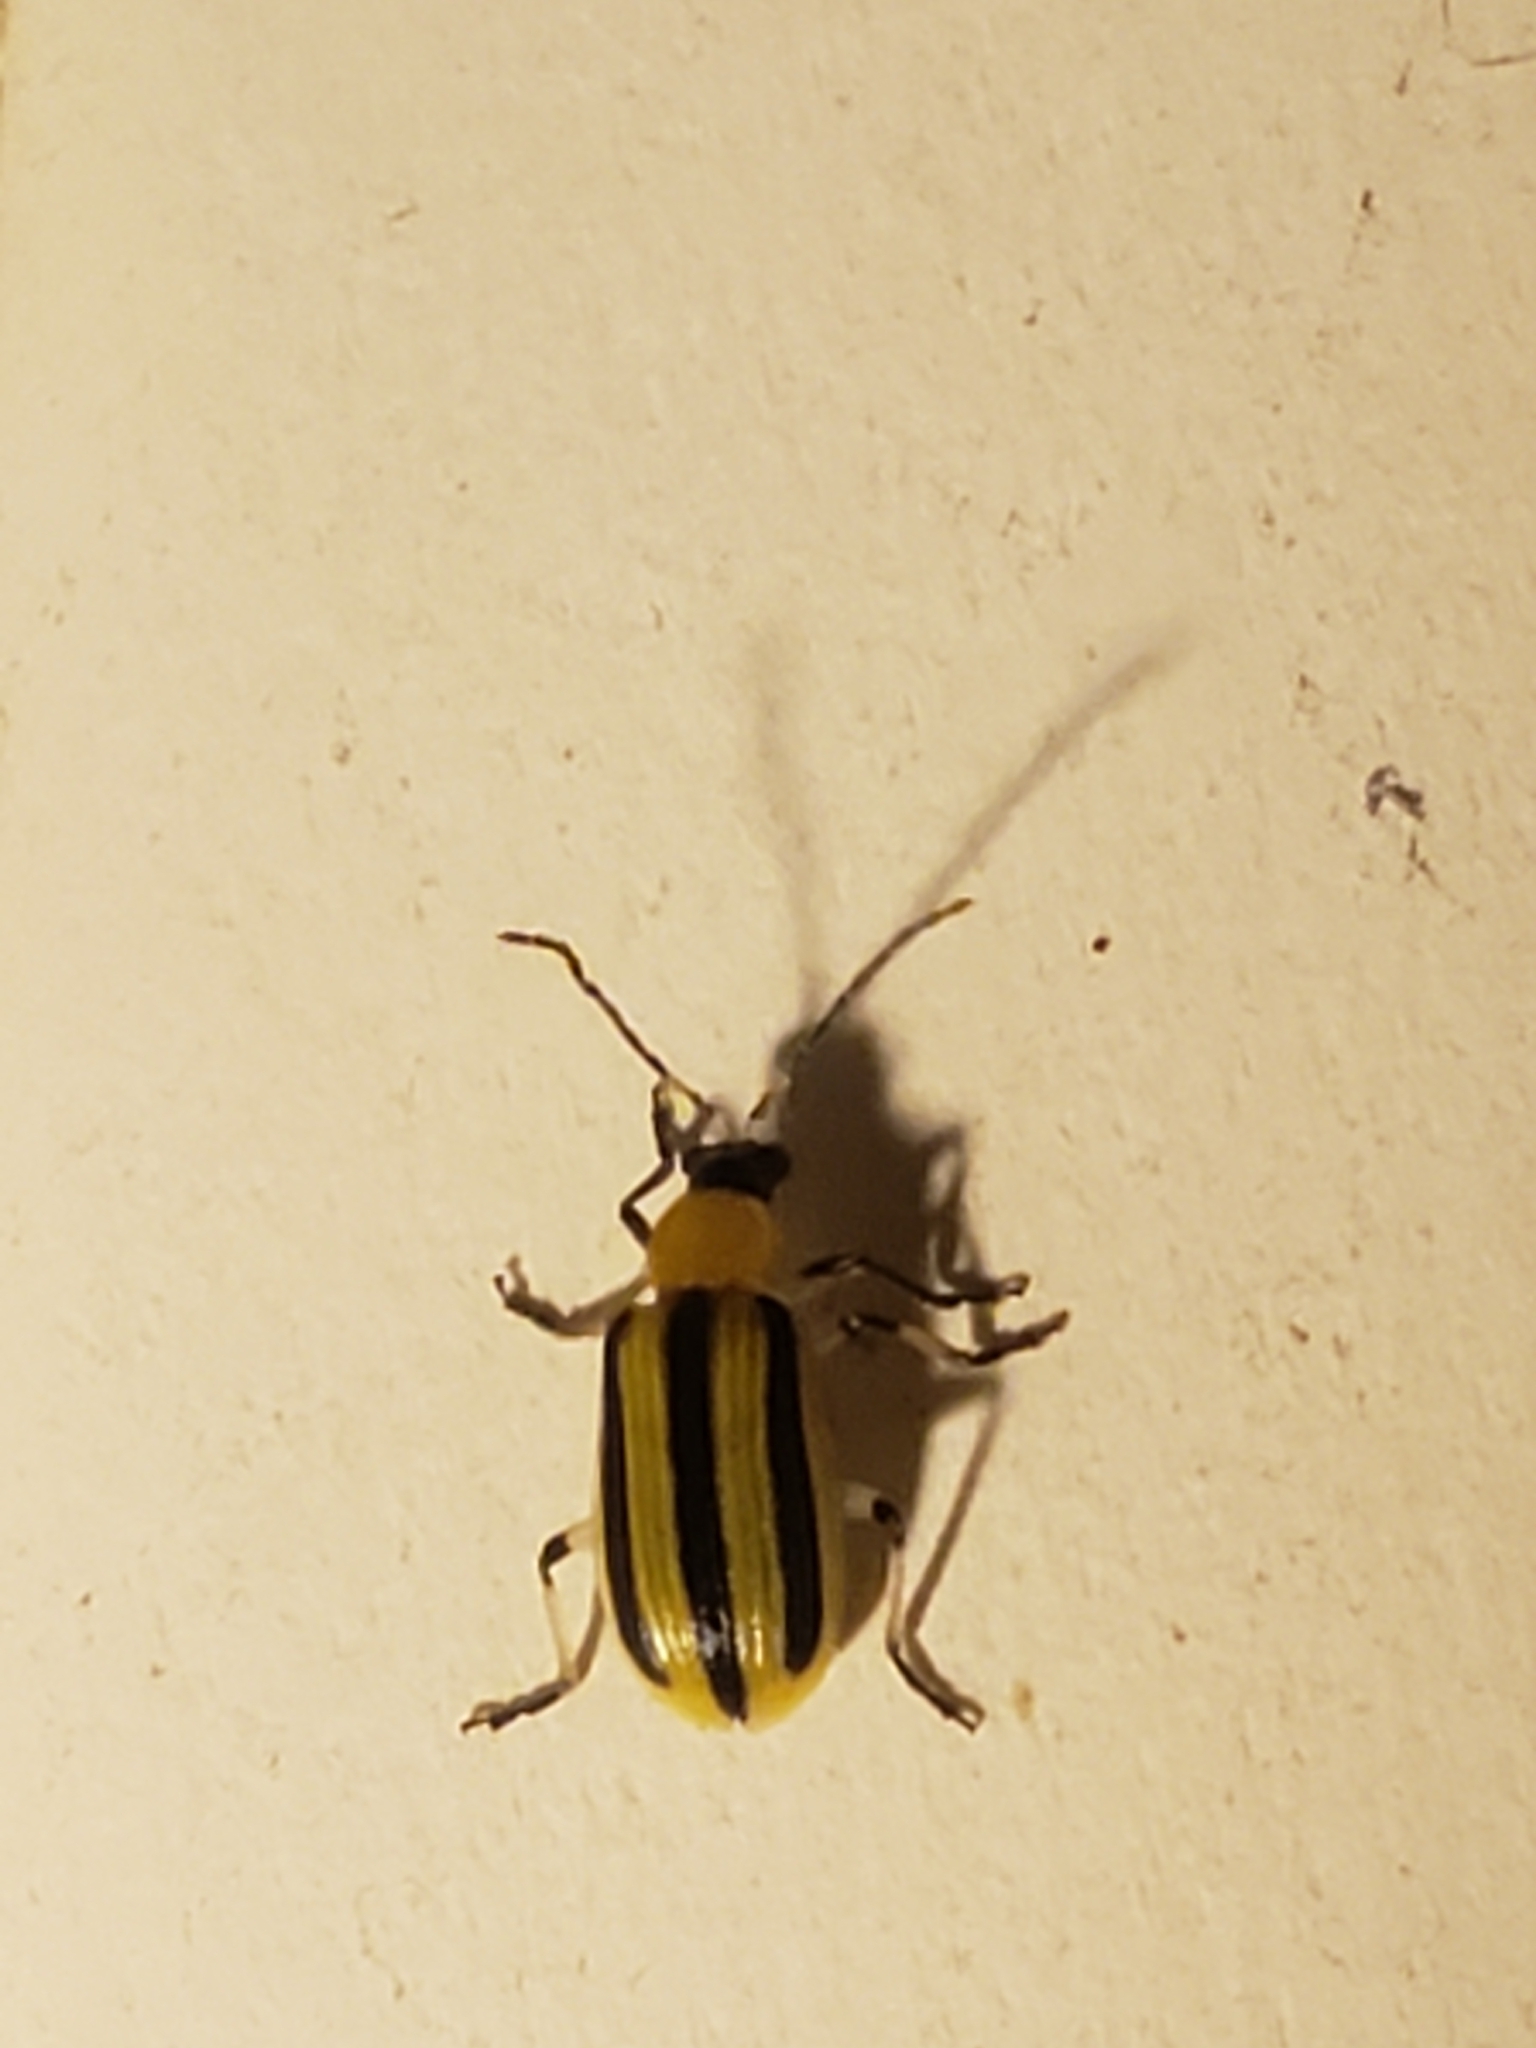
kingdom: Animalia
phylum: Arthropoda
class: Insecta
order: Coleoptera
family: Chrysomelidae
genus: Acalymma
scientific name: Acalymma vittatum
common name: Striped cucumber beetle
